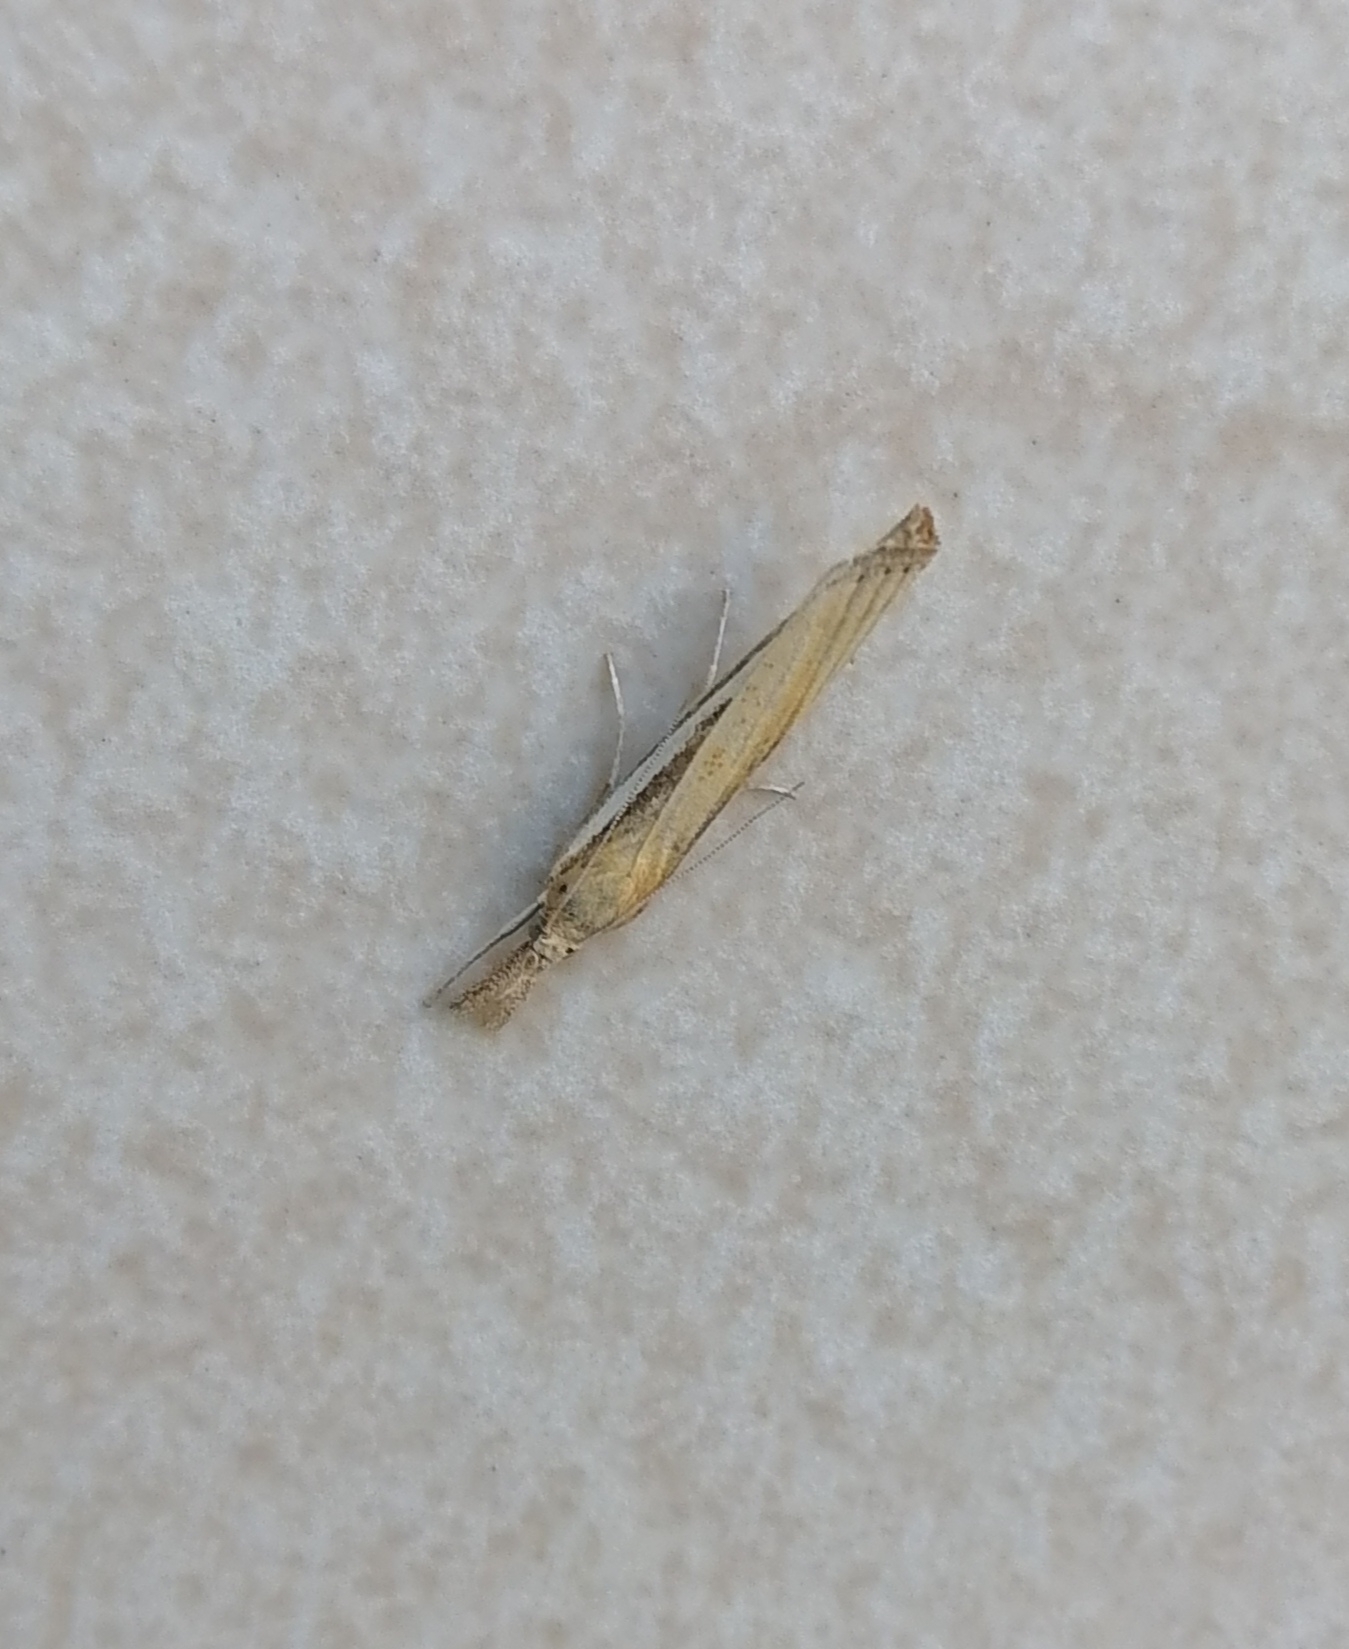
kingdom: Animalia
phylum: Arthropoda
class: Insecta
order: Lepidoptera
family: Crambidae
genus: Agriphila
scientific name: Agriphila deliella
